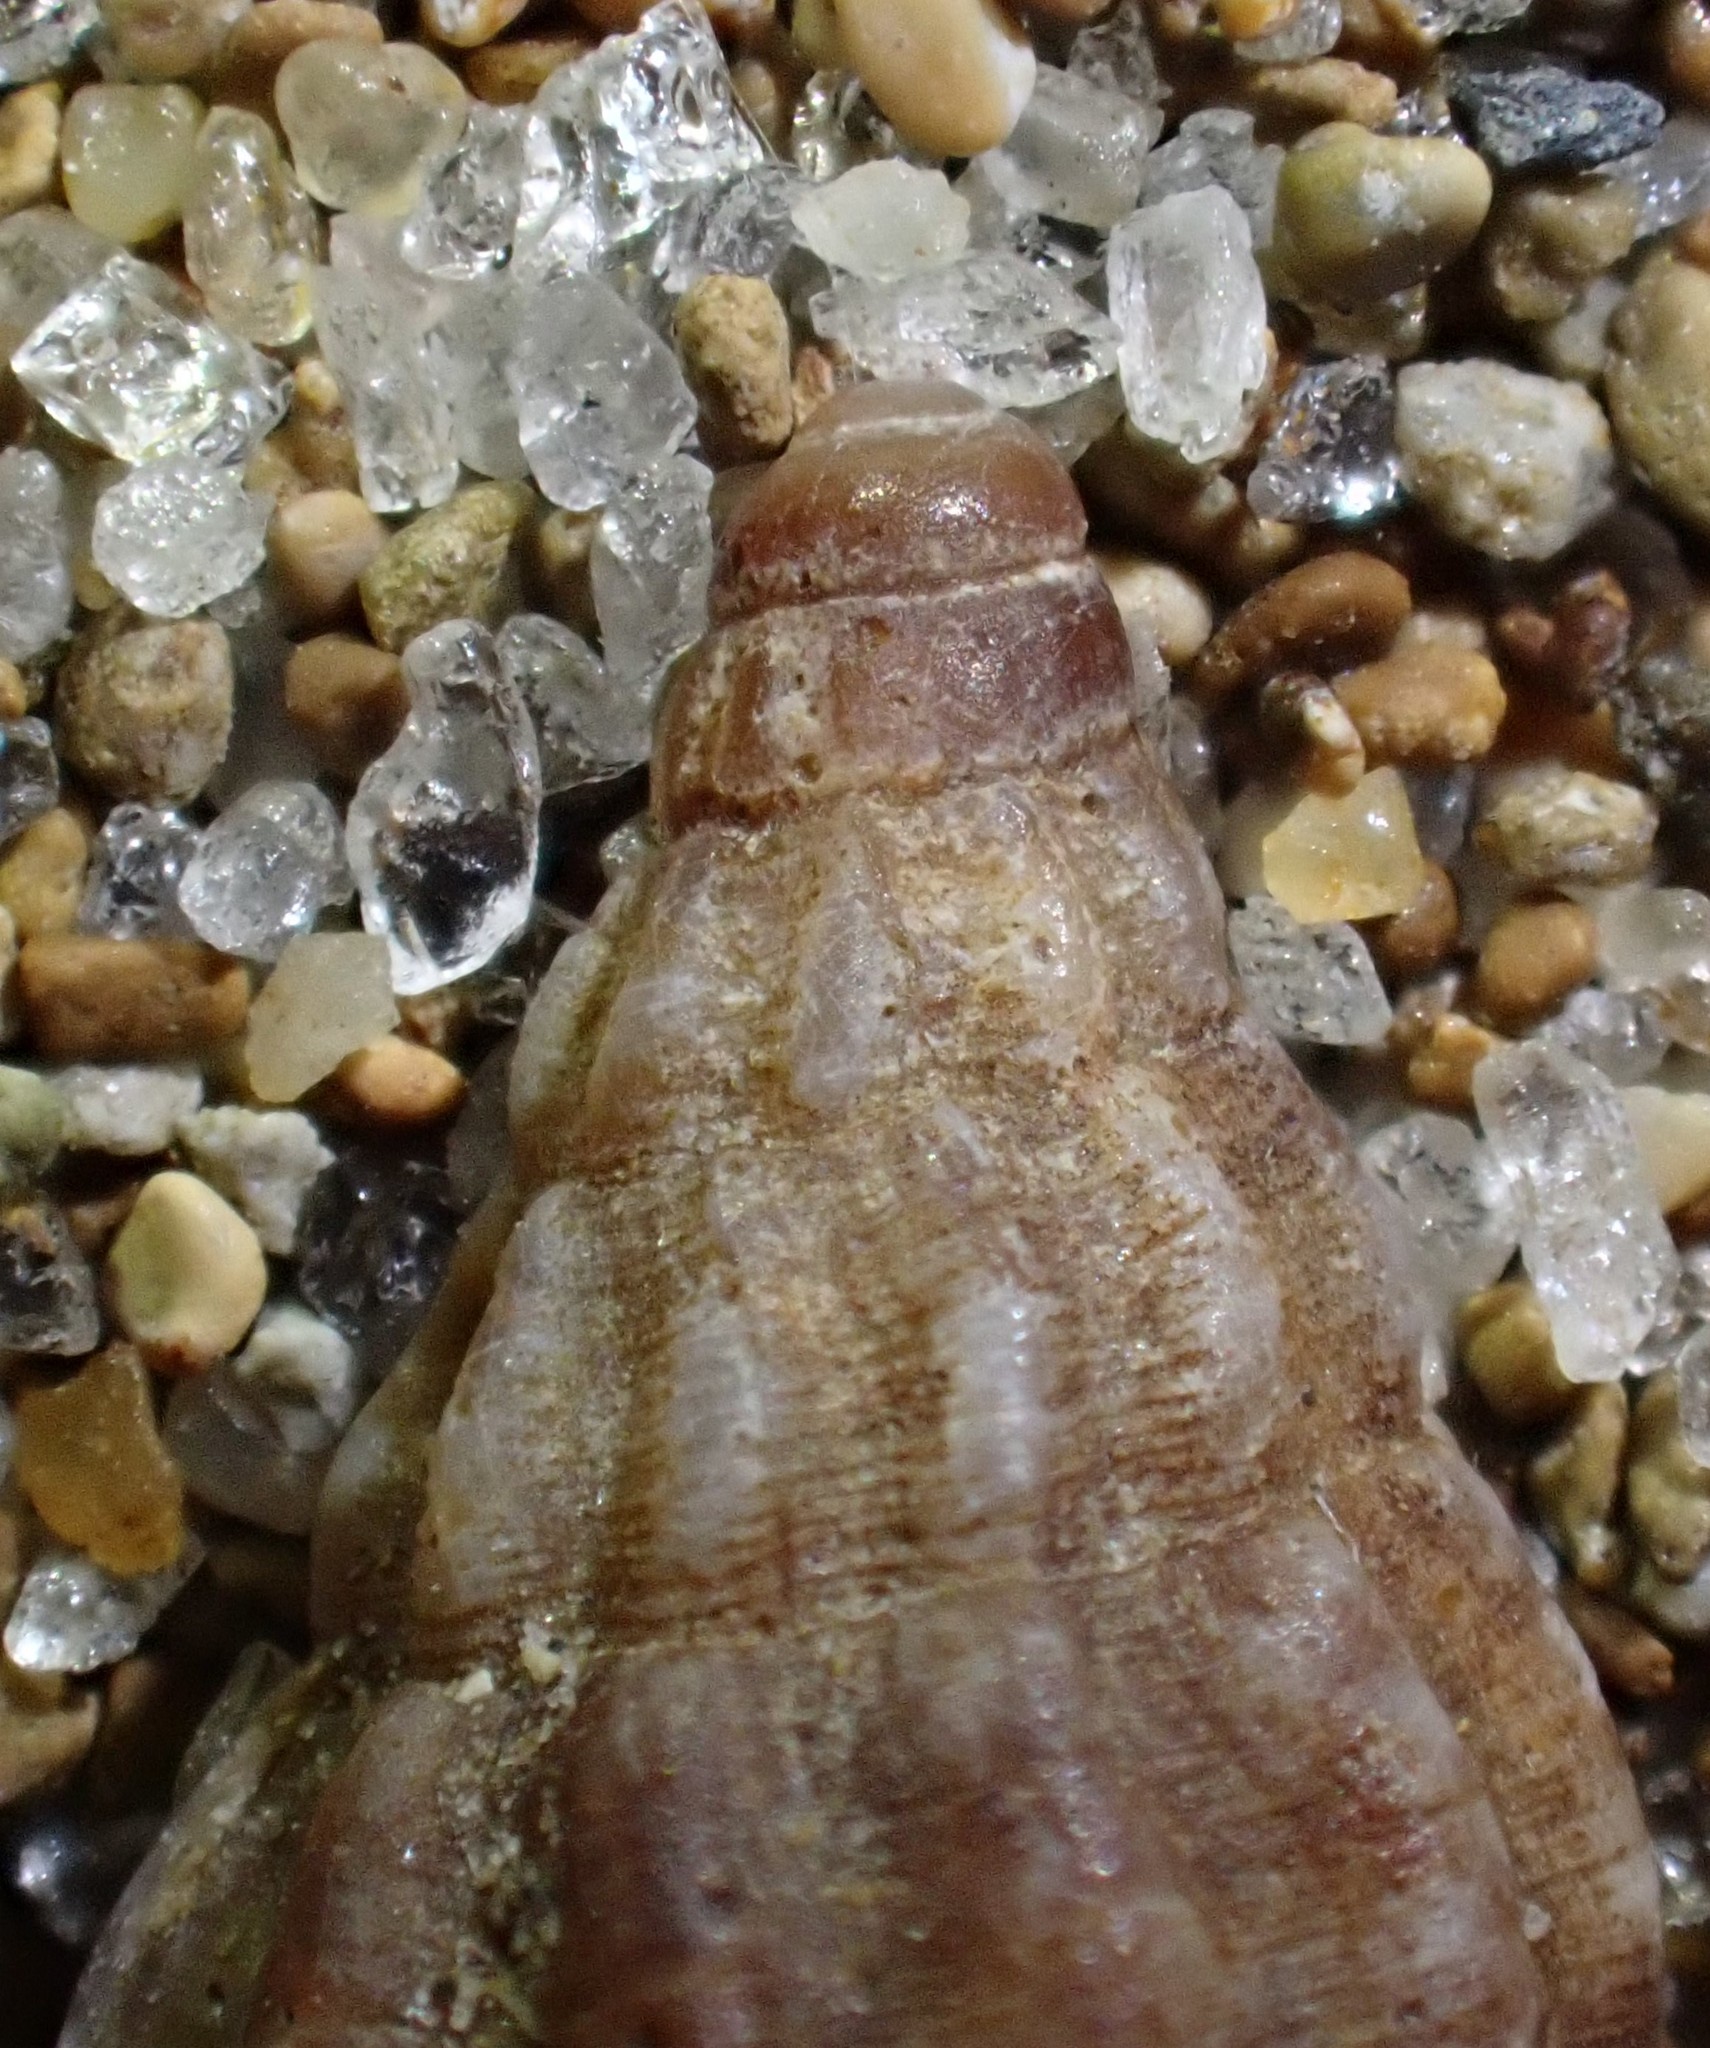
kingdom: Animalia
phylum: Mollusca
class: Gastropoda
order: Neogastropoda
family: Cominellidae
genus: Cominella
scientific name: Cominella accuminata
